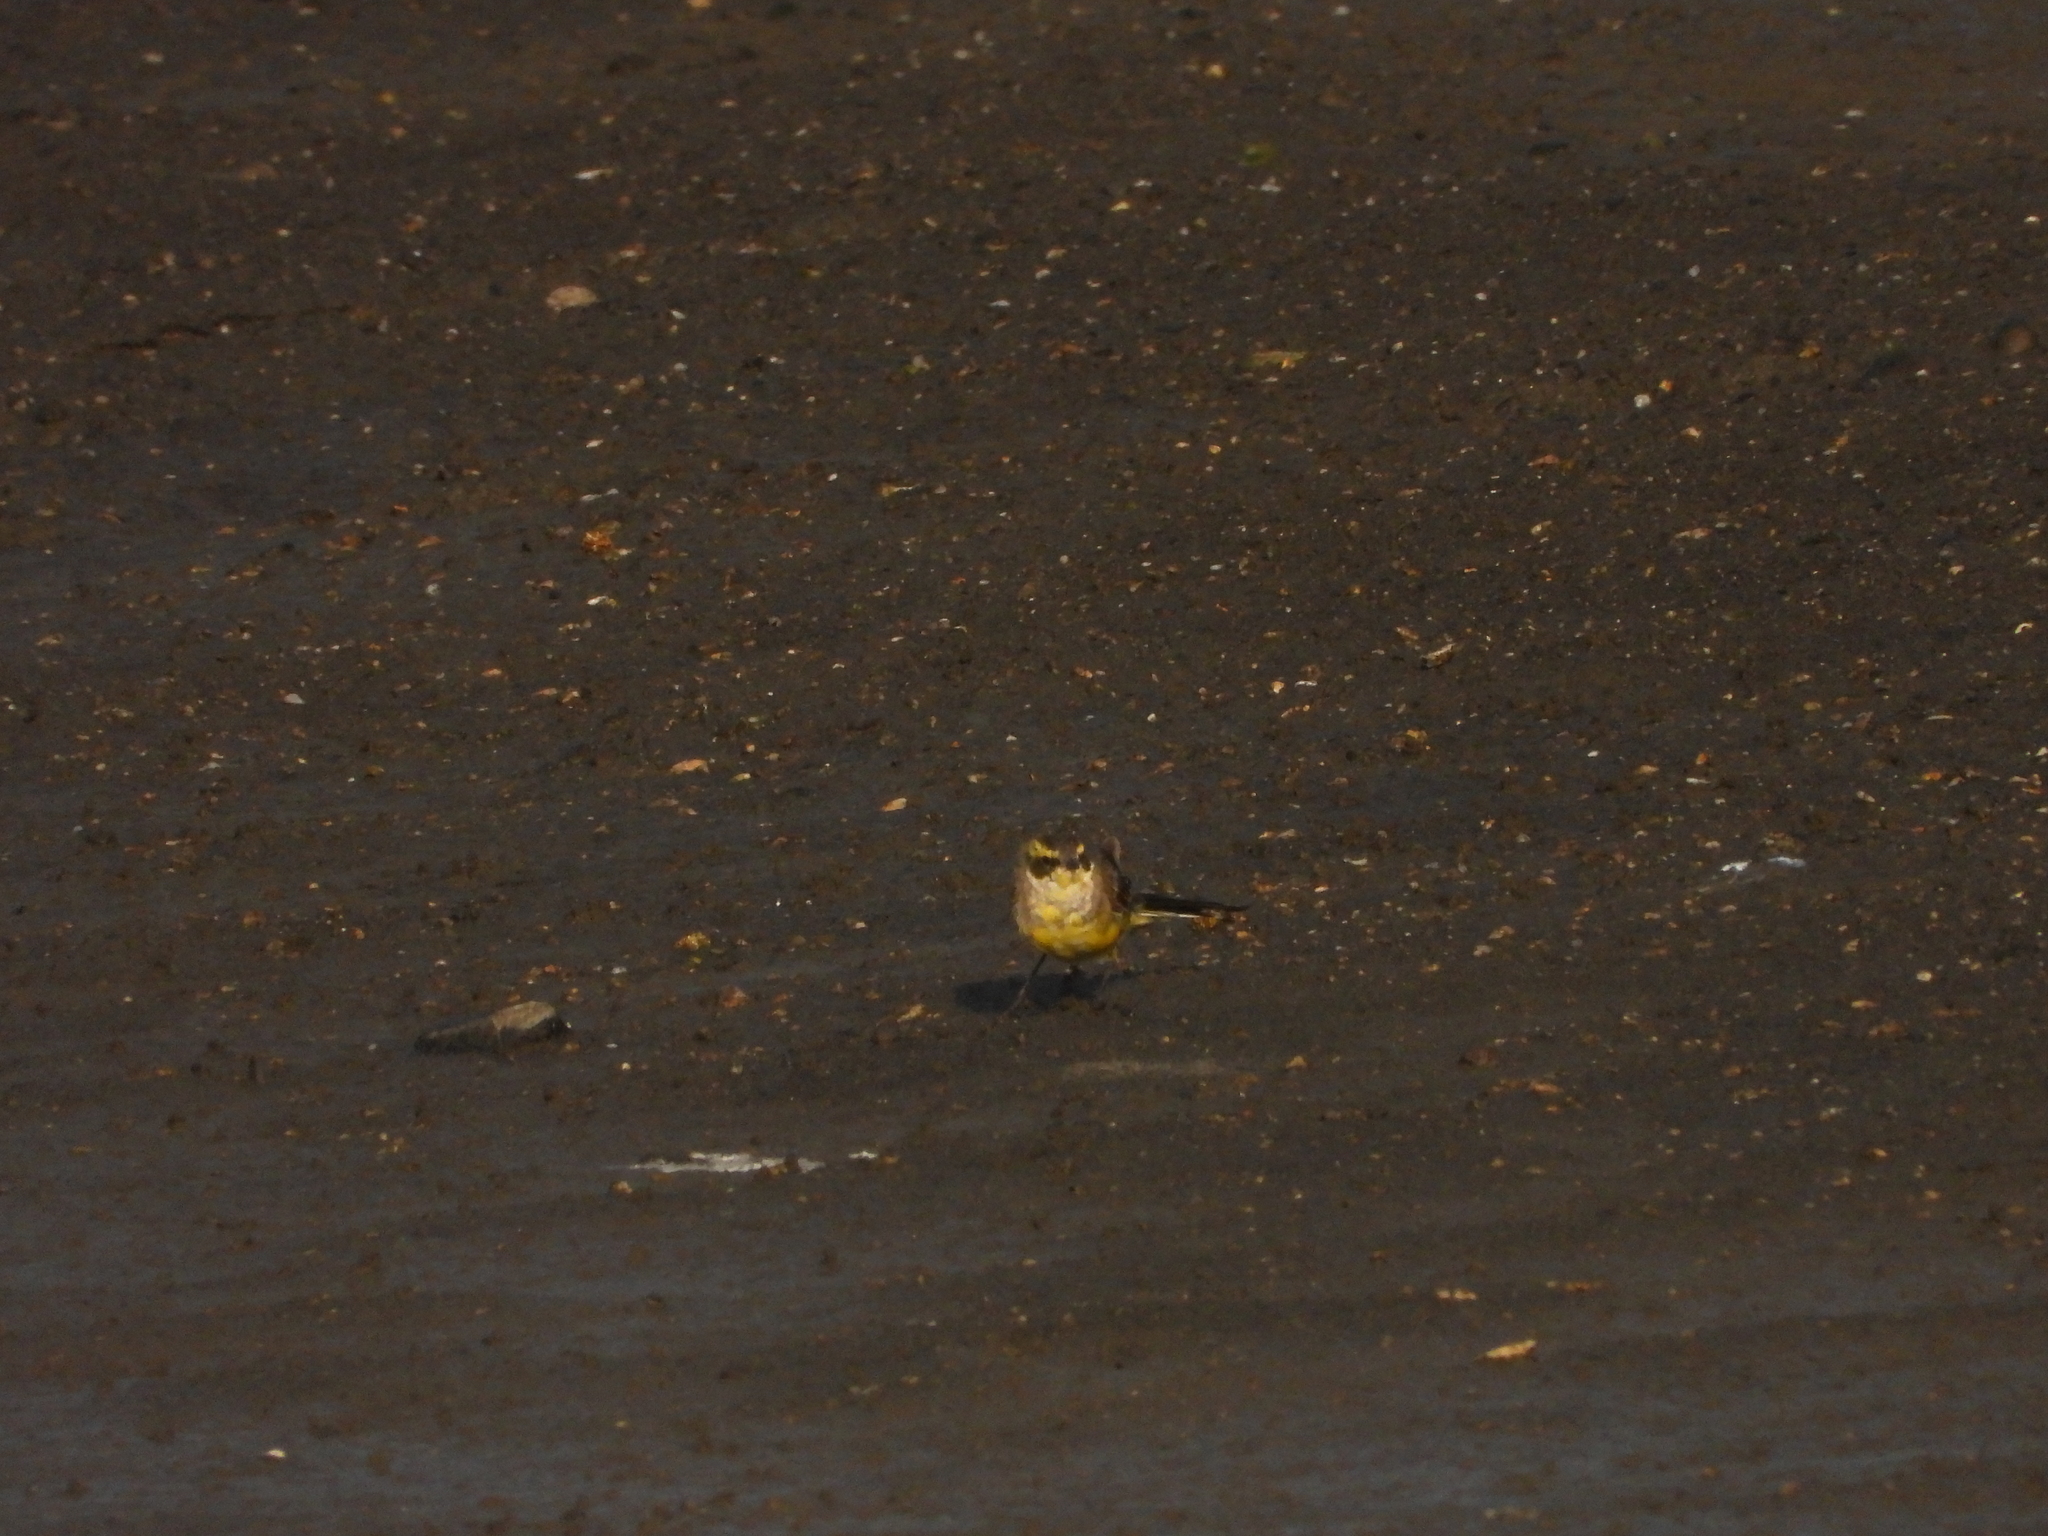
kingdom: Animalia
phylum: Chordata
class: Aves
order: Passeriformes
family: Motacillidae
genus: Motacilla
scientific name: Motacilla tschutschensis
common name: Eastern yellow wagtail
